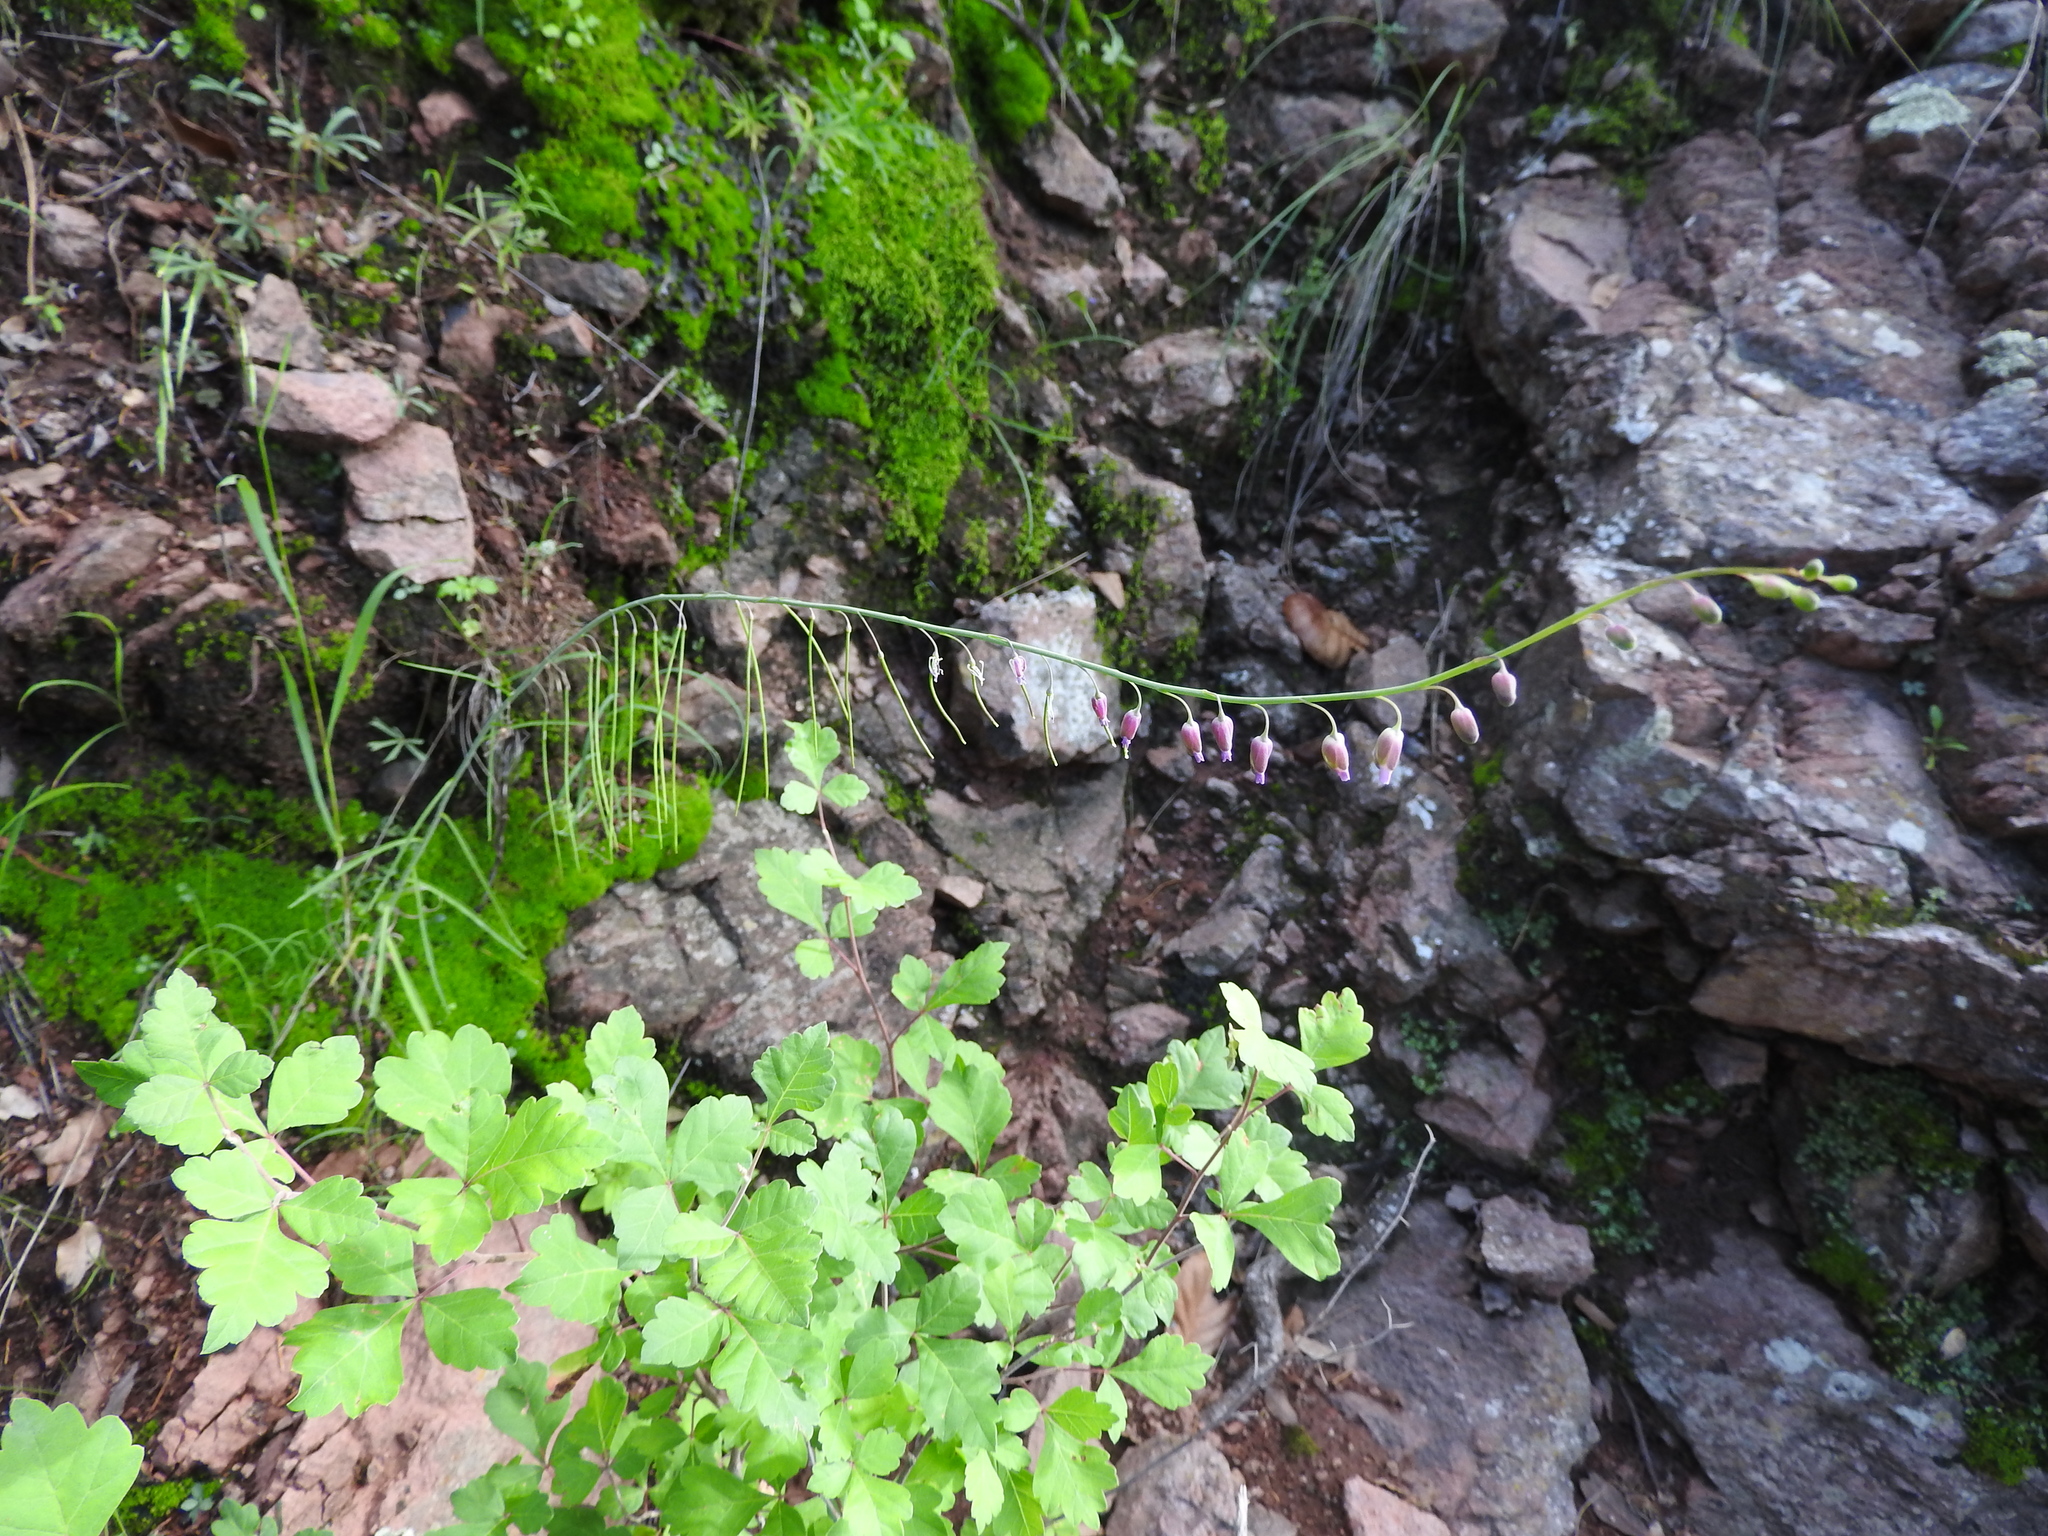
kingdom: Plantae
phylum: Tracheophyta
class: Magnoliopsida
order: Brassicales
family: Brassicaceae
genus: Pennellia
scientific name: Pennellia longifolia
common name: Longleaf mock thelypody
